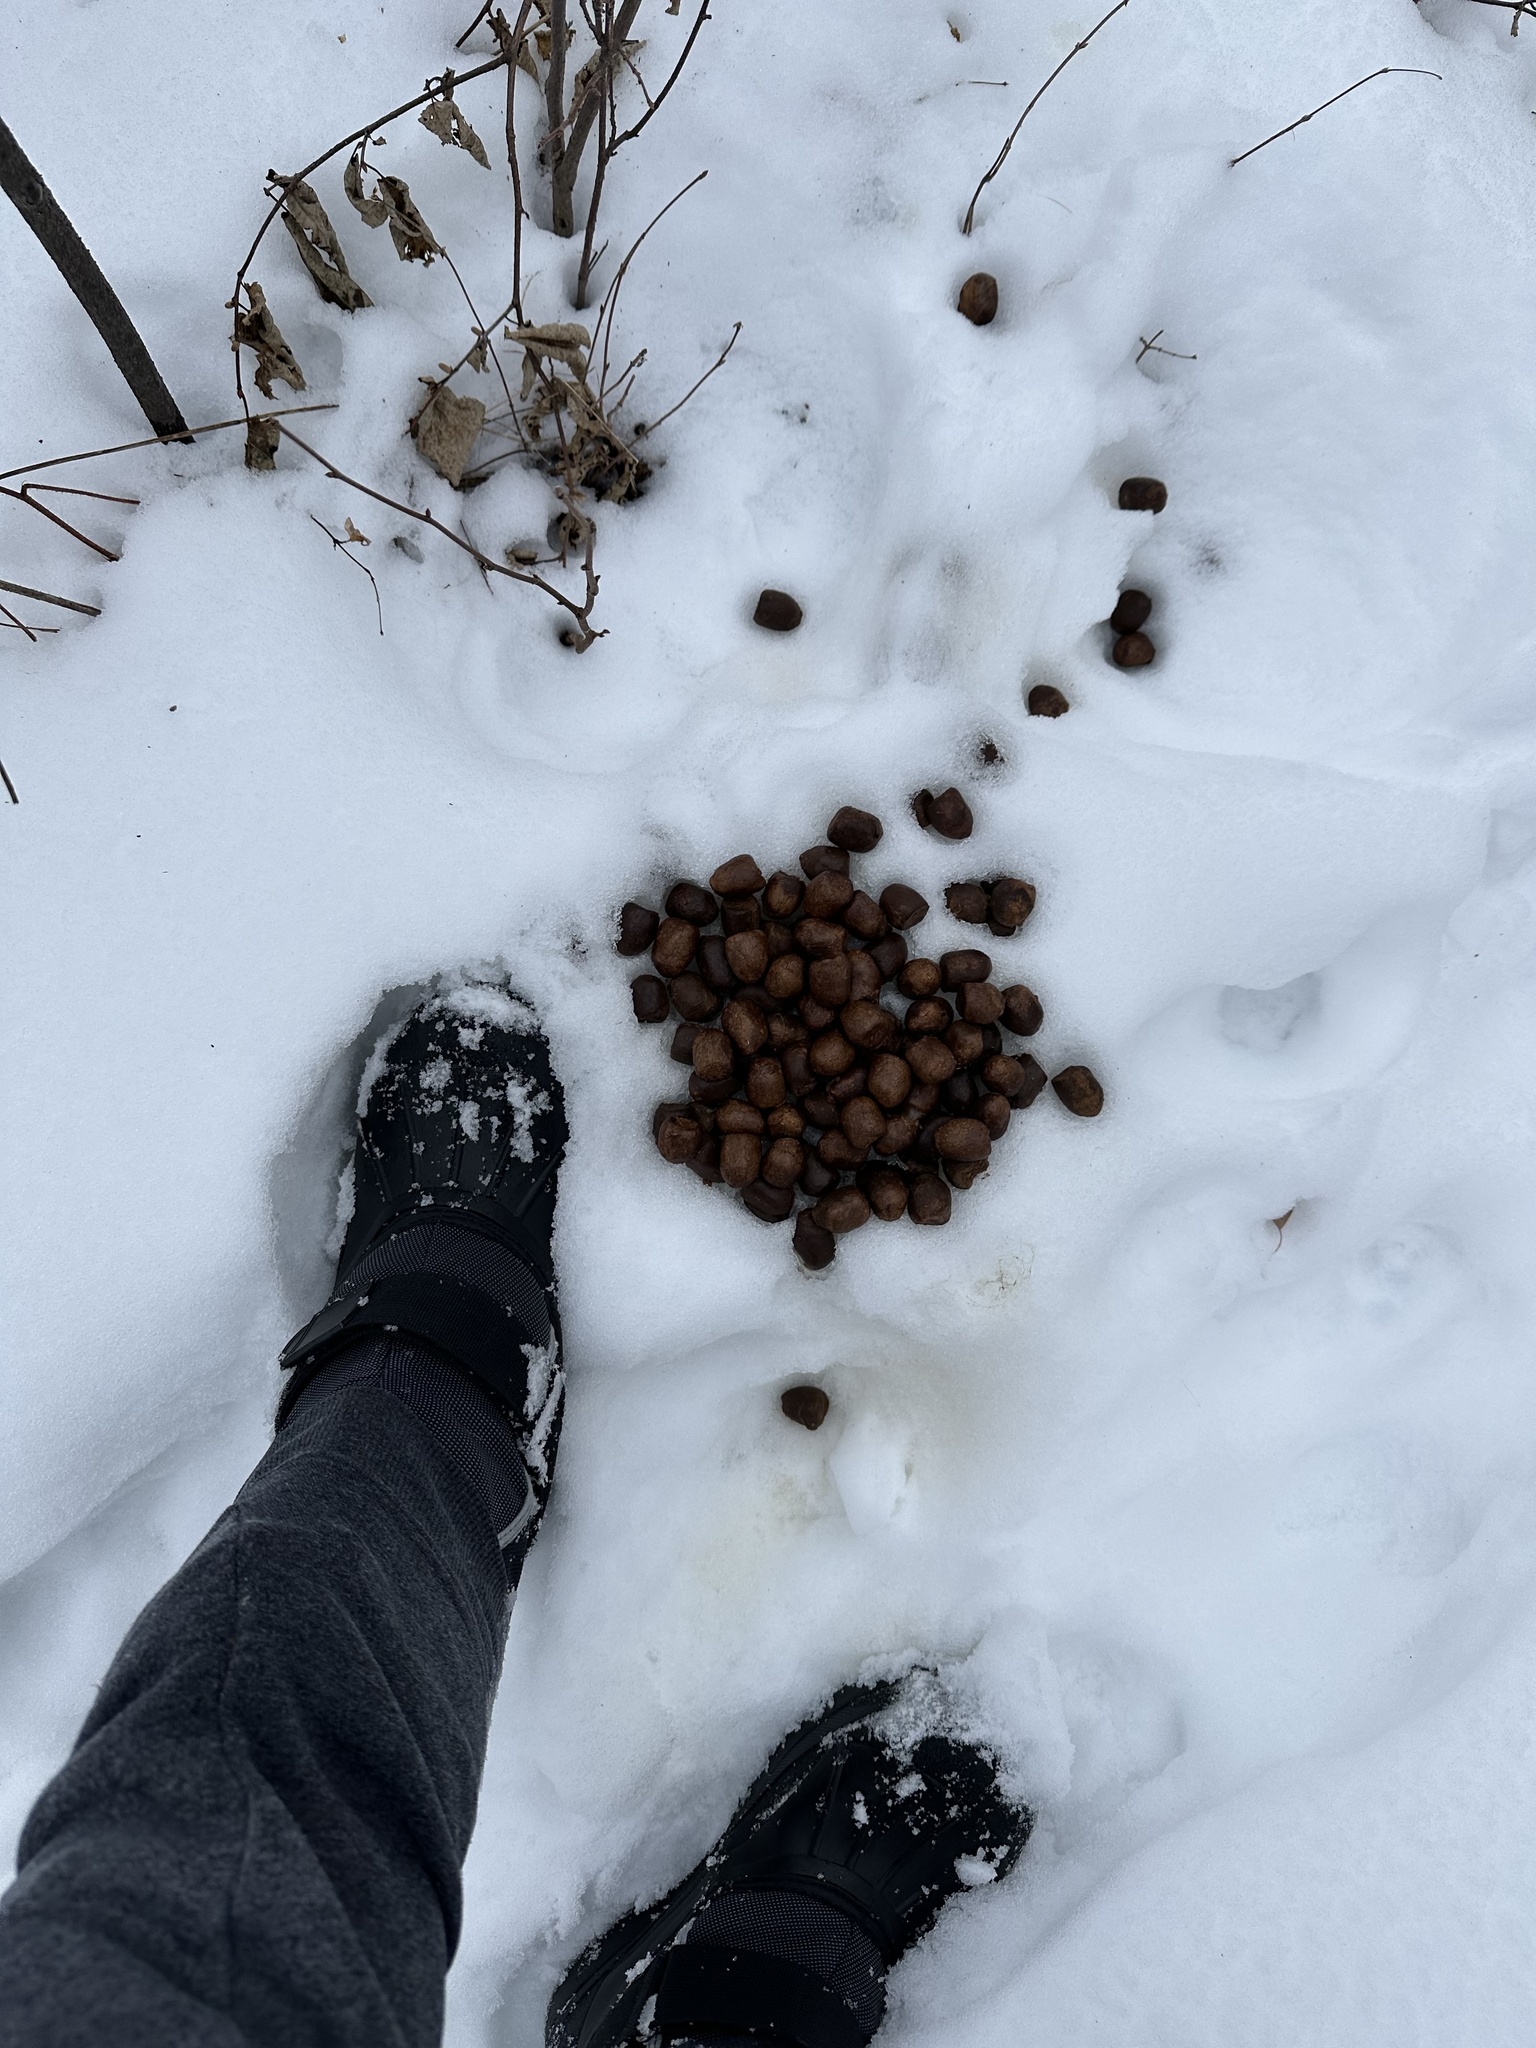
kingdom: Animalia
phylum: Chordata
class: Mammalia
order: Artiodactyla
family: Cervidae
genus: Alces
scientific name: Alces alces
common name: Moose
